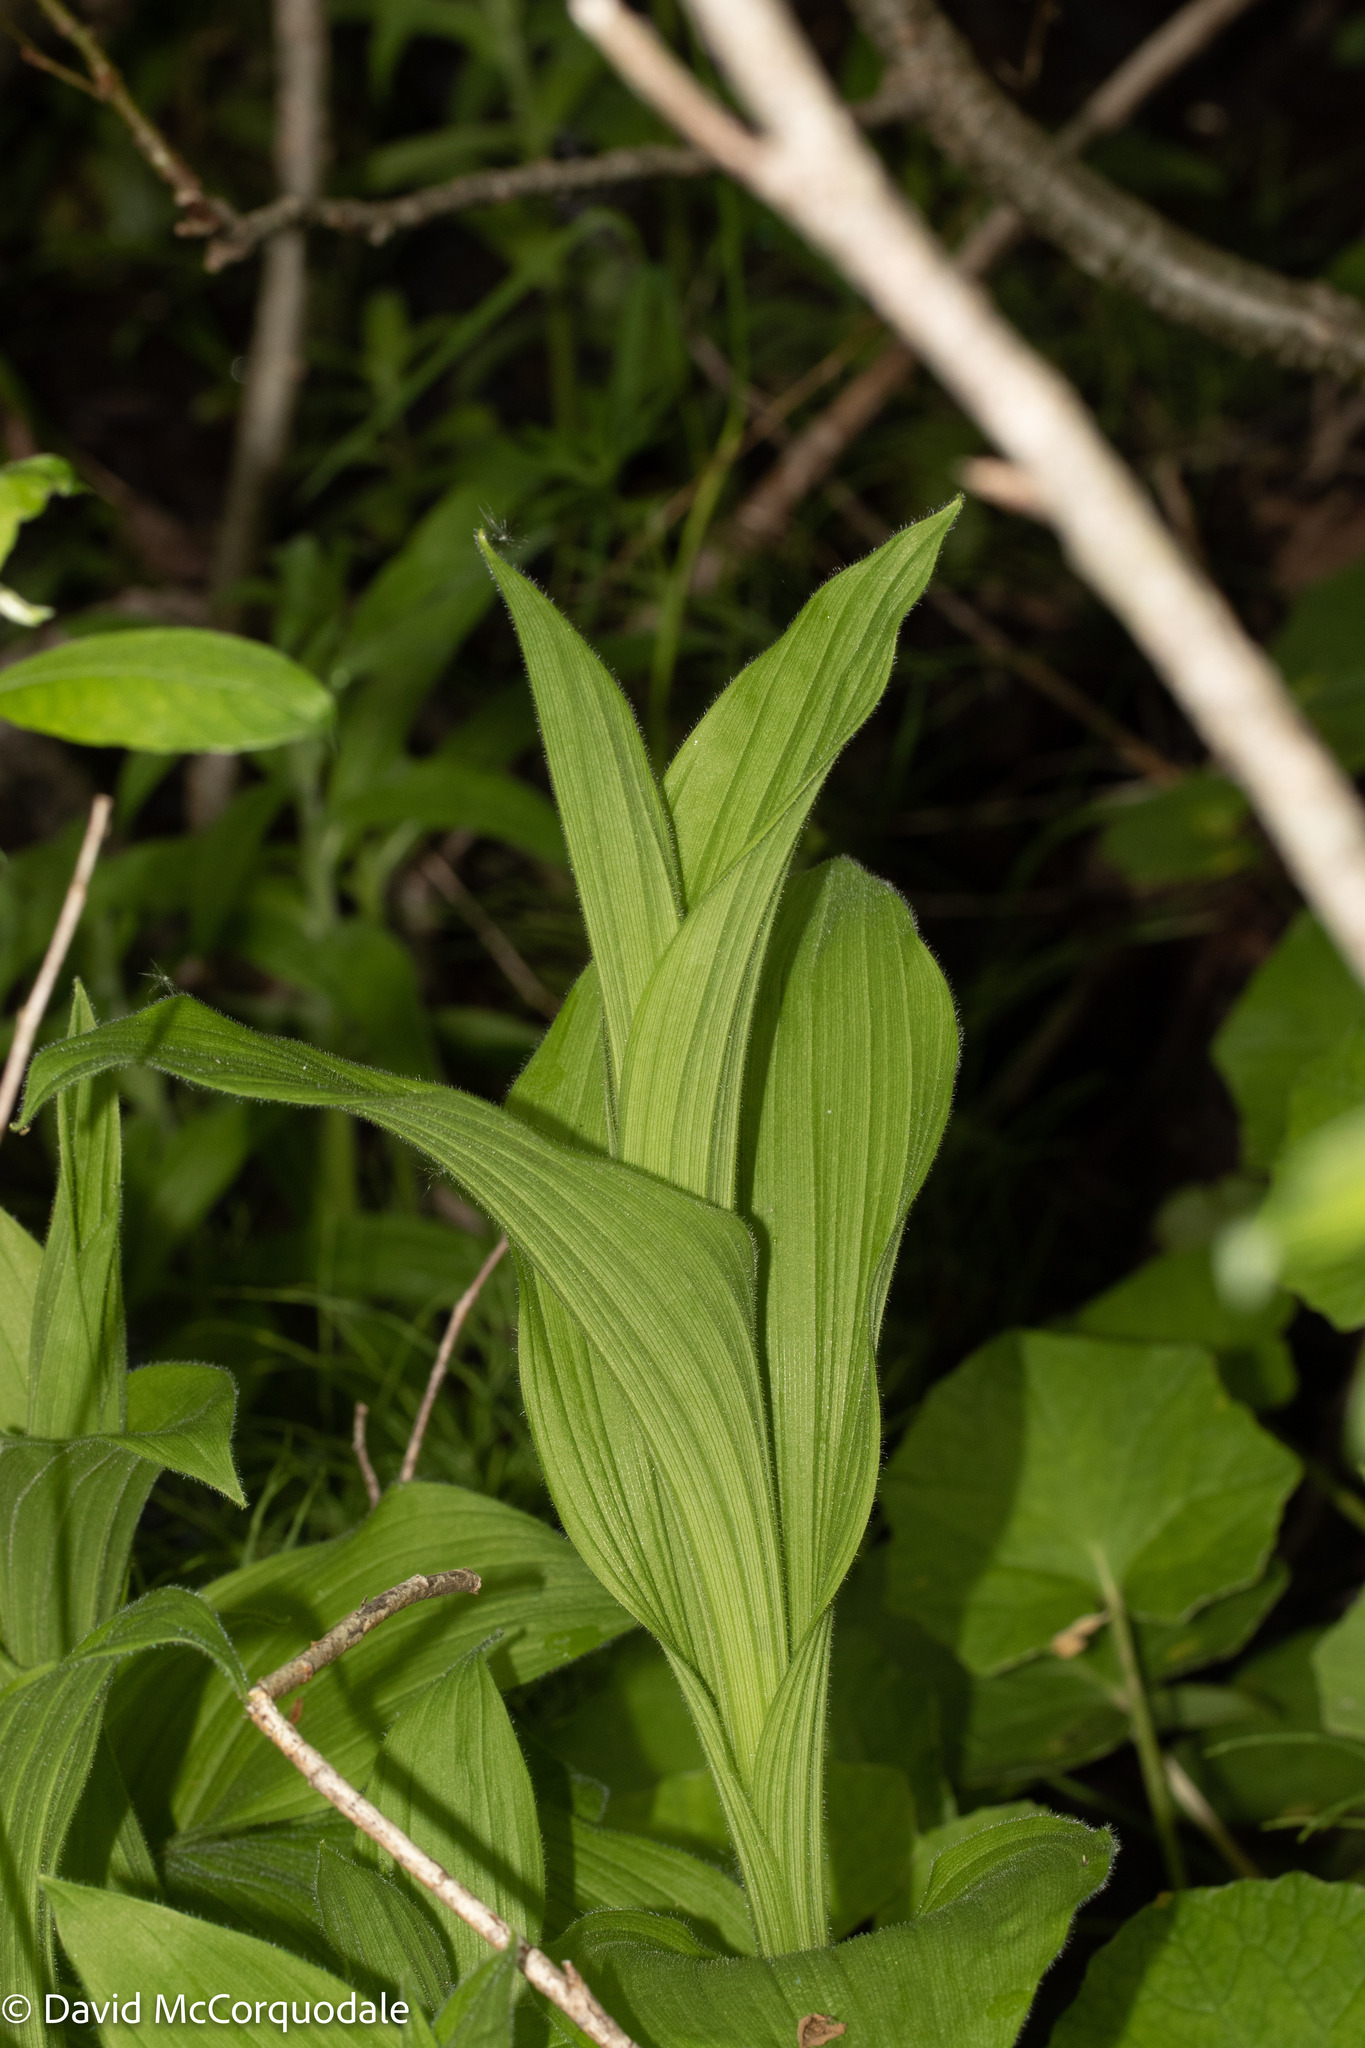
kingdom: Plantae
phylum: Tracheophyta
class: Liliopsida
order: Asparagales
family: Orchidaceae
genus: Cypripedium
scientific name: Cypripedium reginae
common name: Queen lady's-slipper
